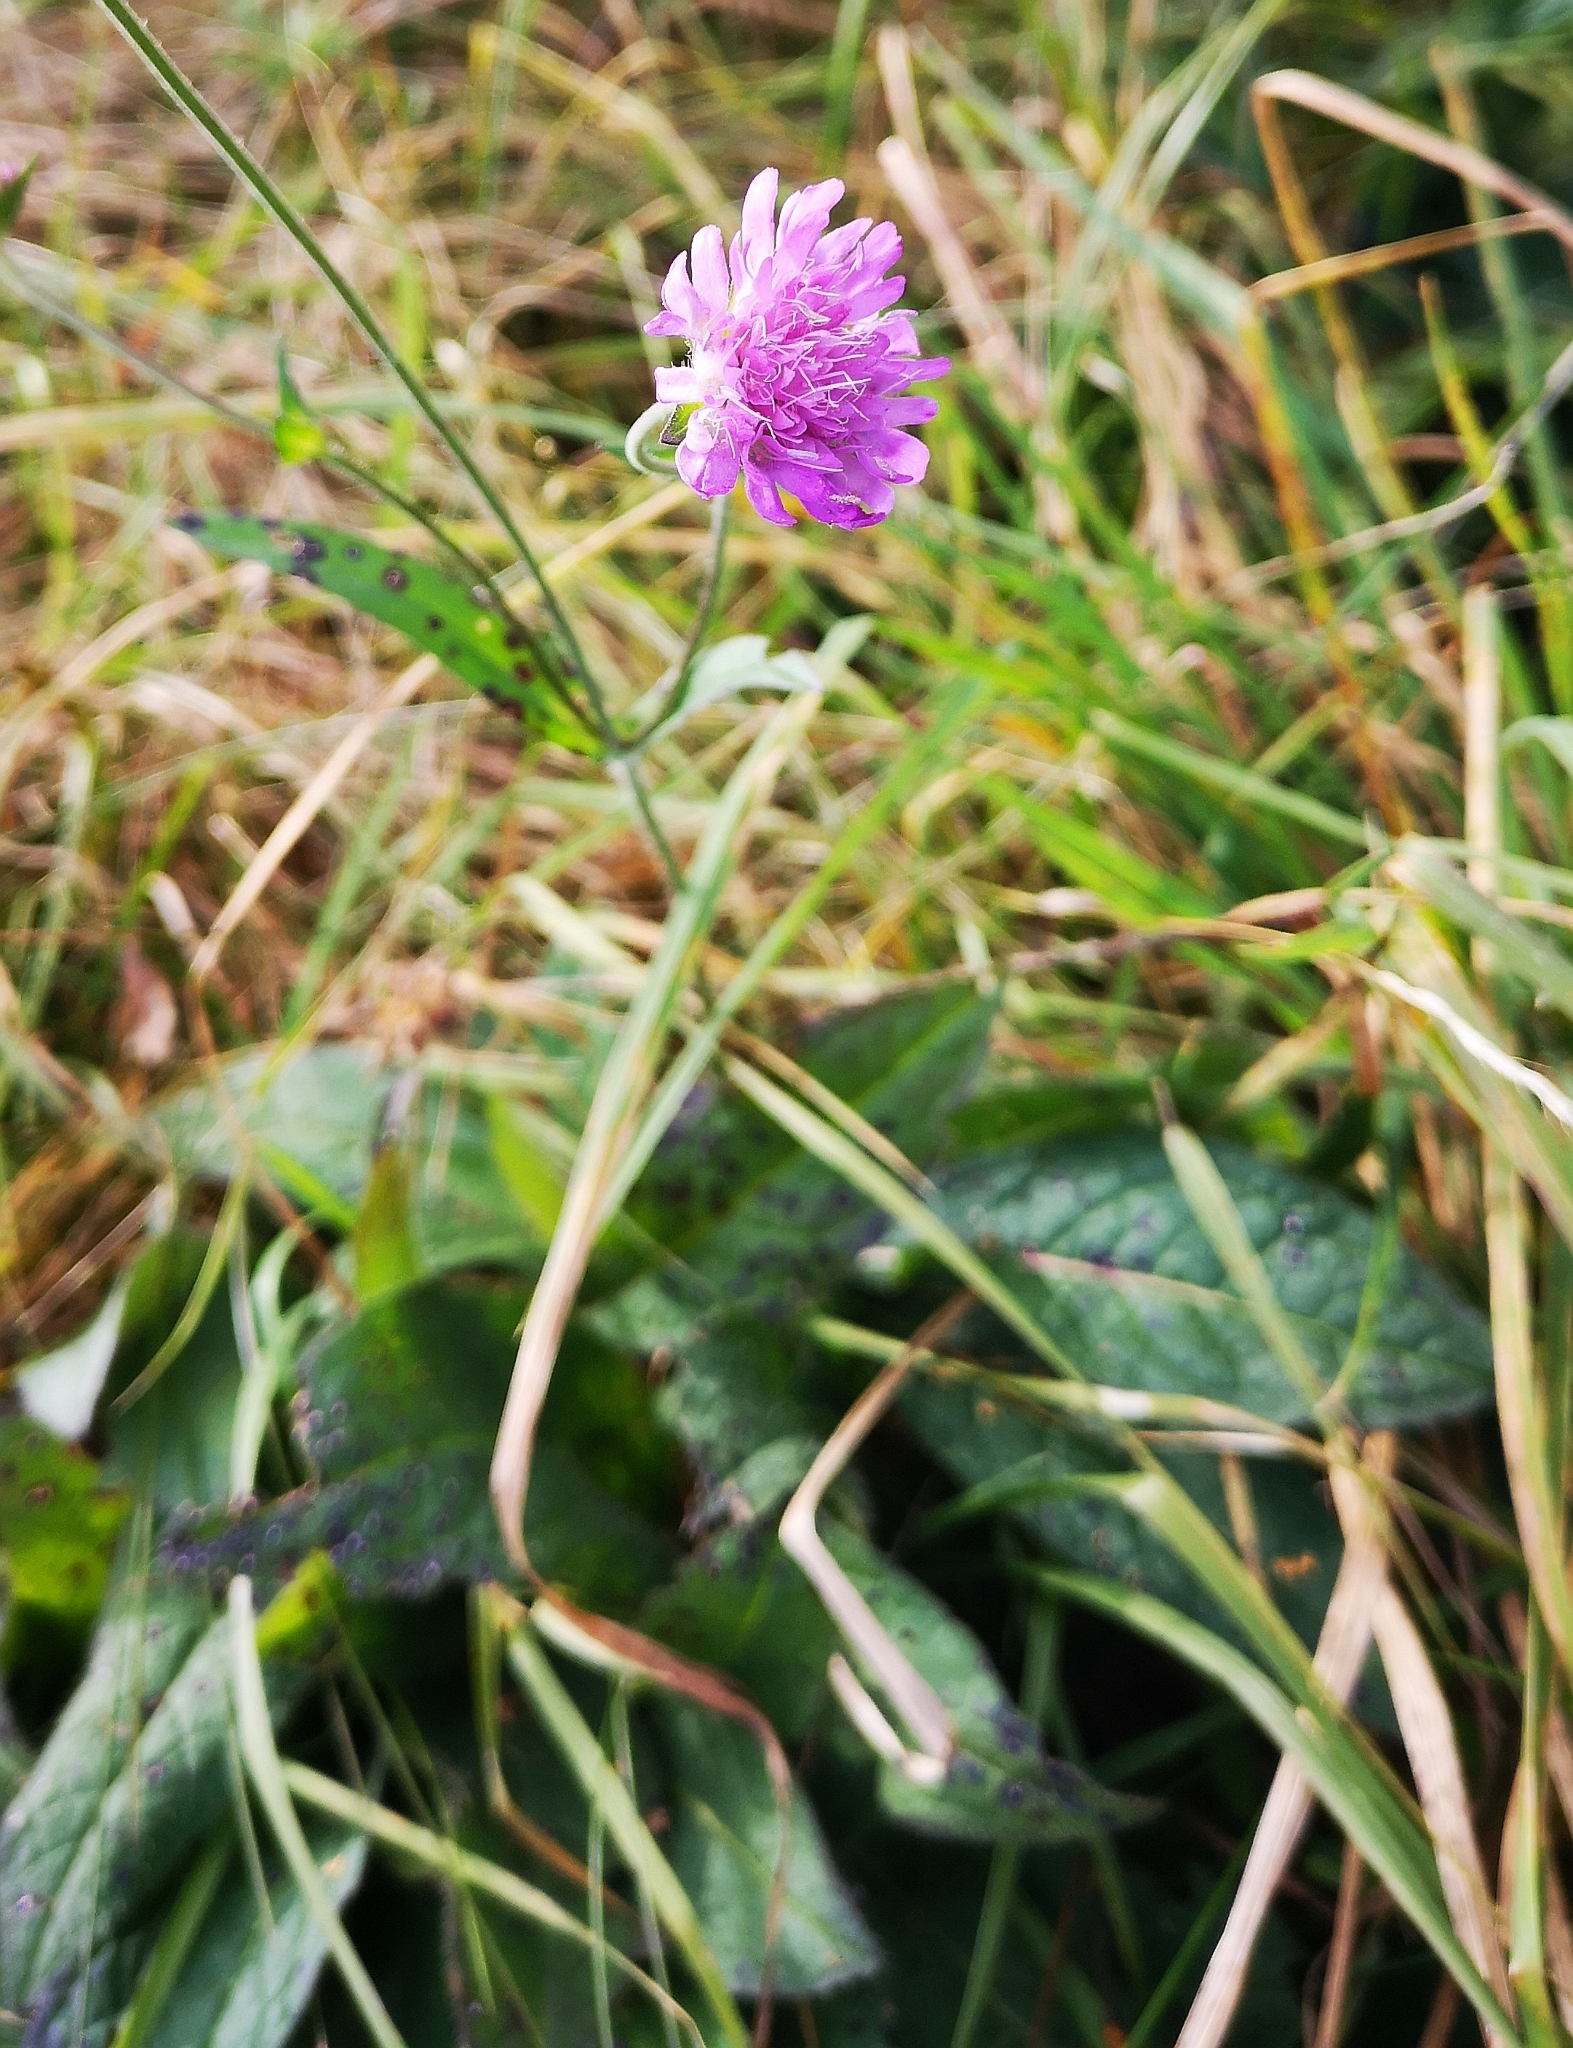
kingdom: Plantae
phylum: Tracheophyta
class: Magnoliopsida
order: Dipsacales
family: Caprifoliaceae
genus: Knautia
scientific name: Knautia drymeia
